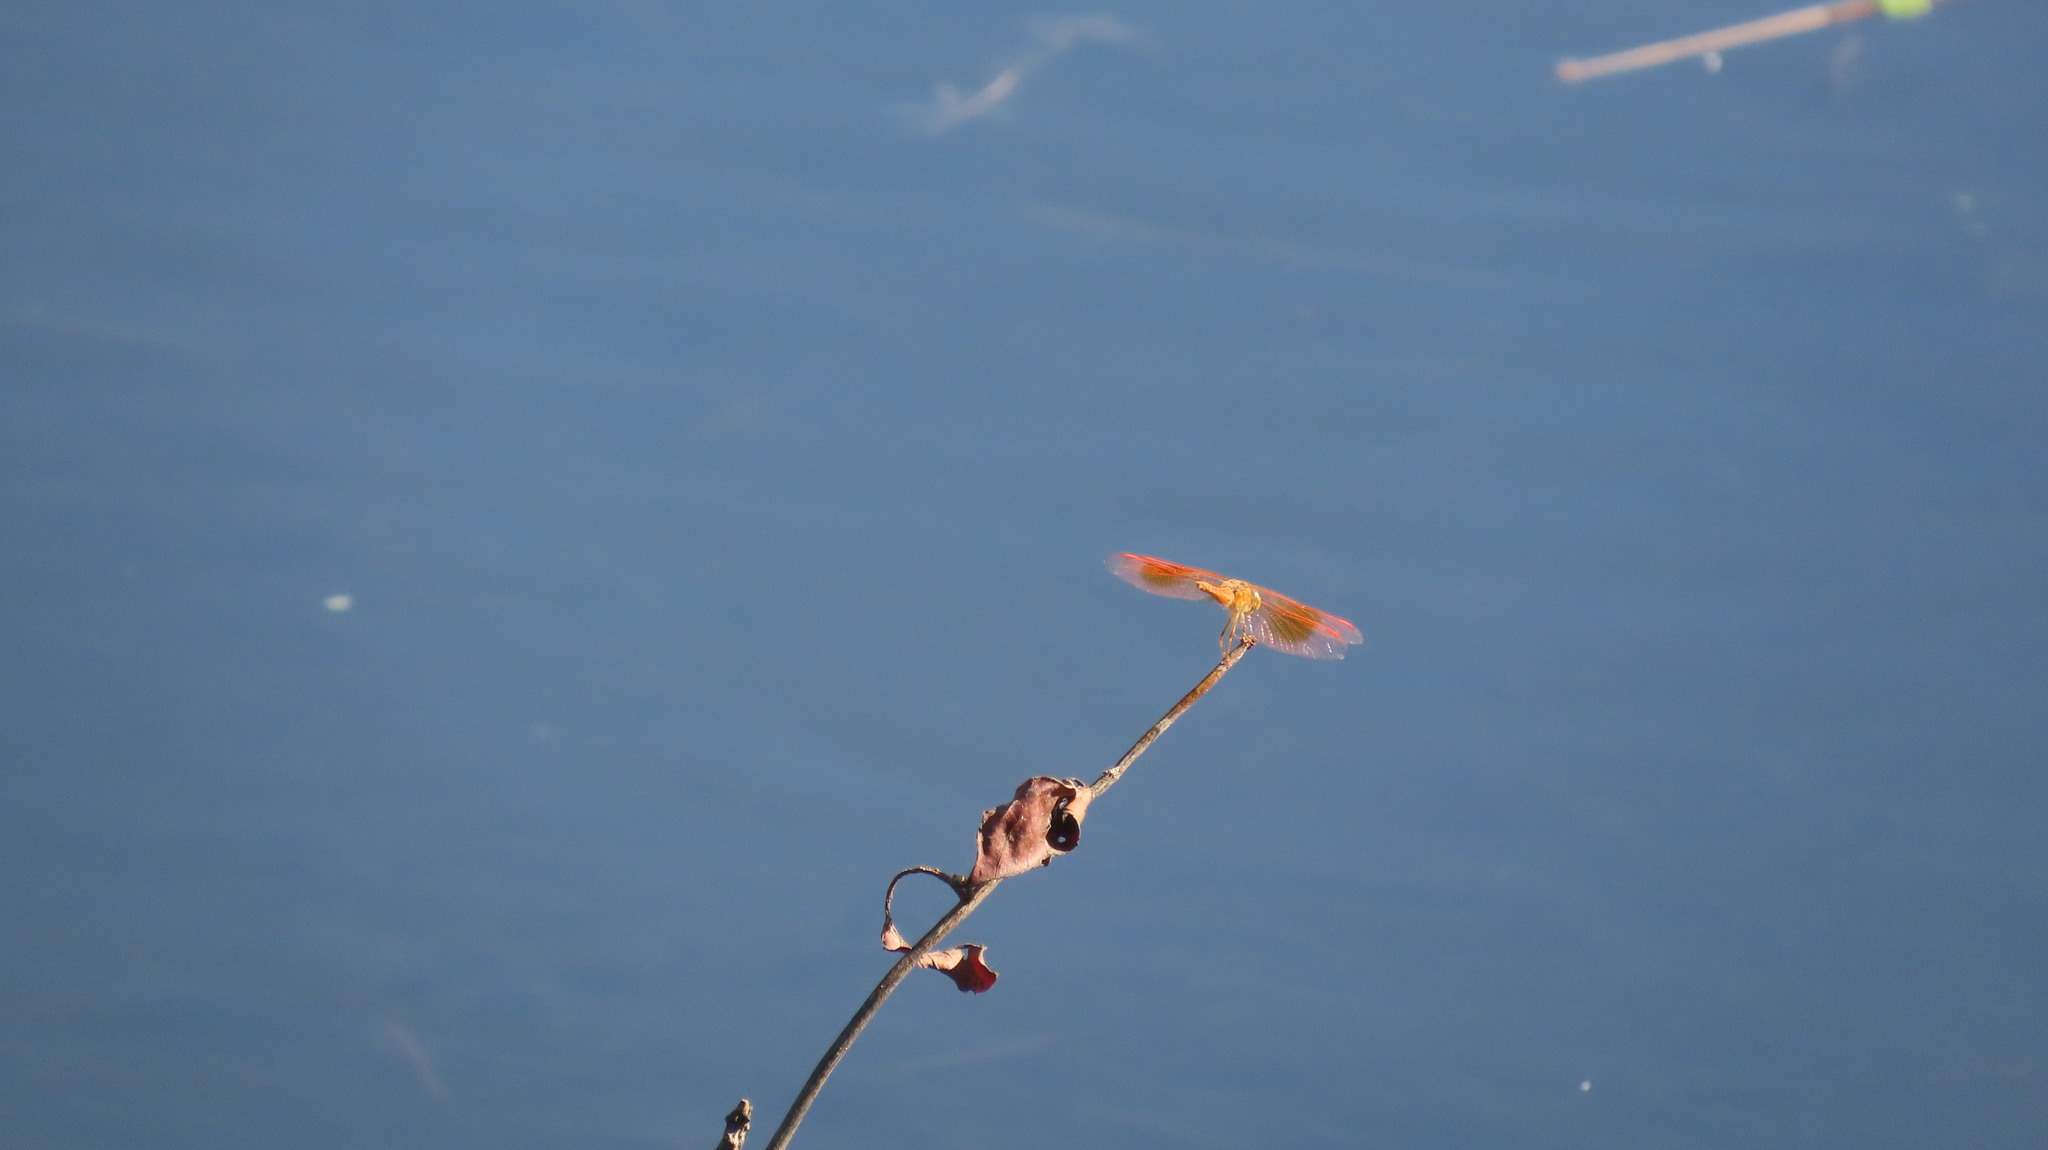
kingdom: Animalia
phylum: Arthropoda
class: Insecta
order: Odonata
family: Libellulidae
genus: Brachythemis
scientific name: Brachythemis contaminata
